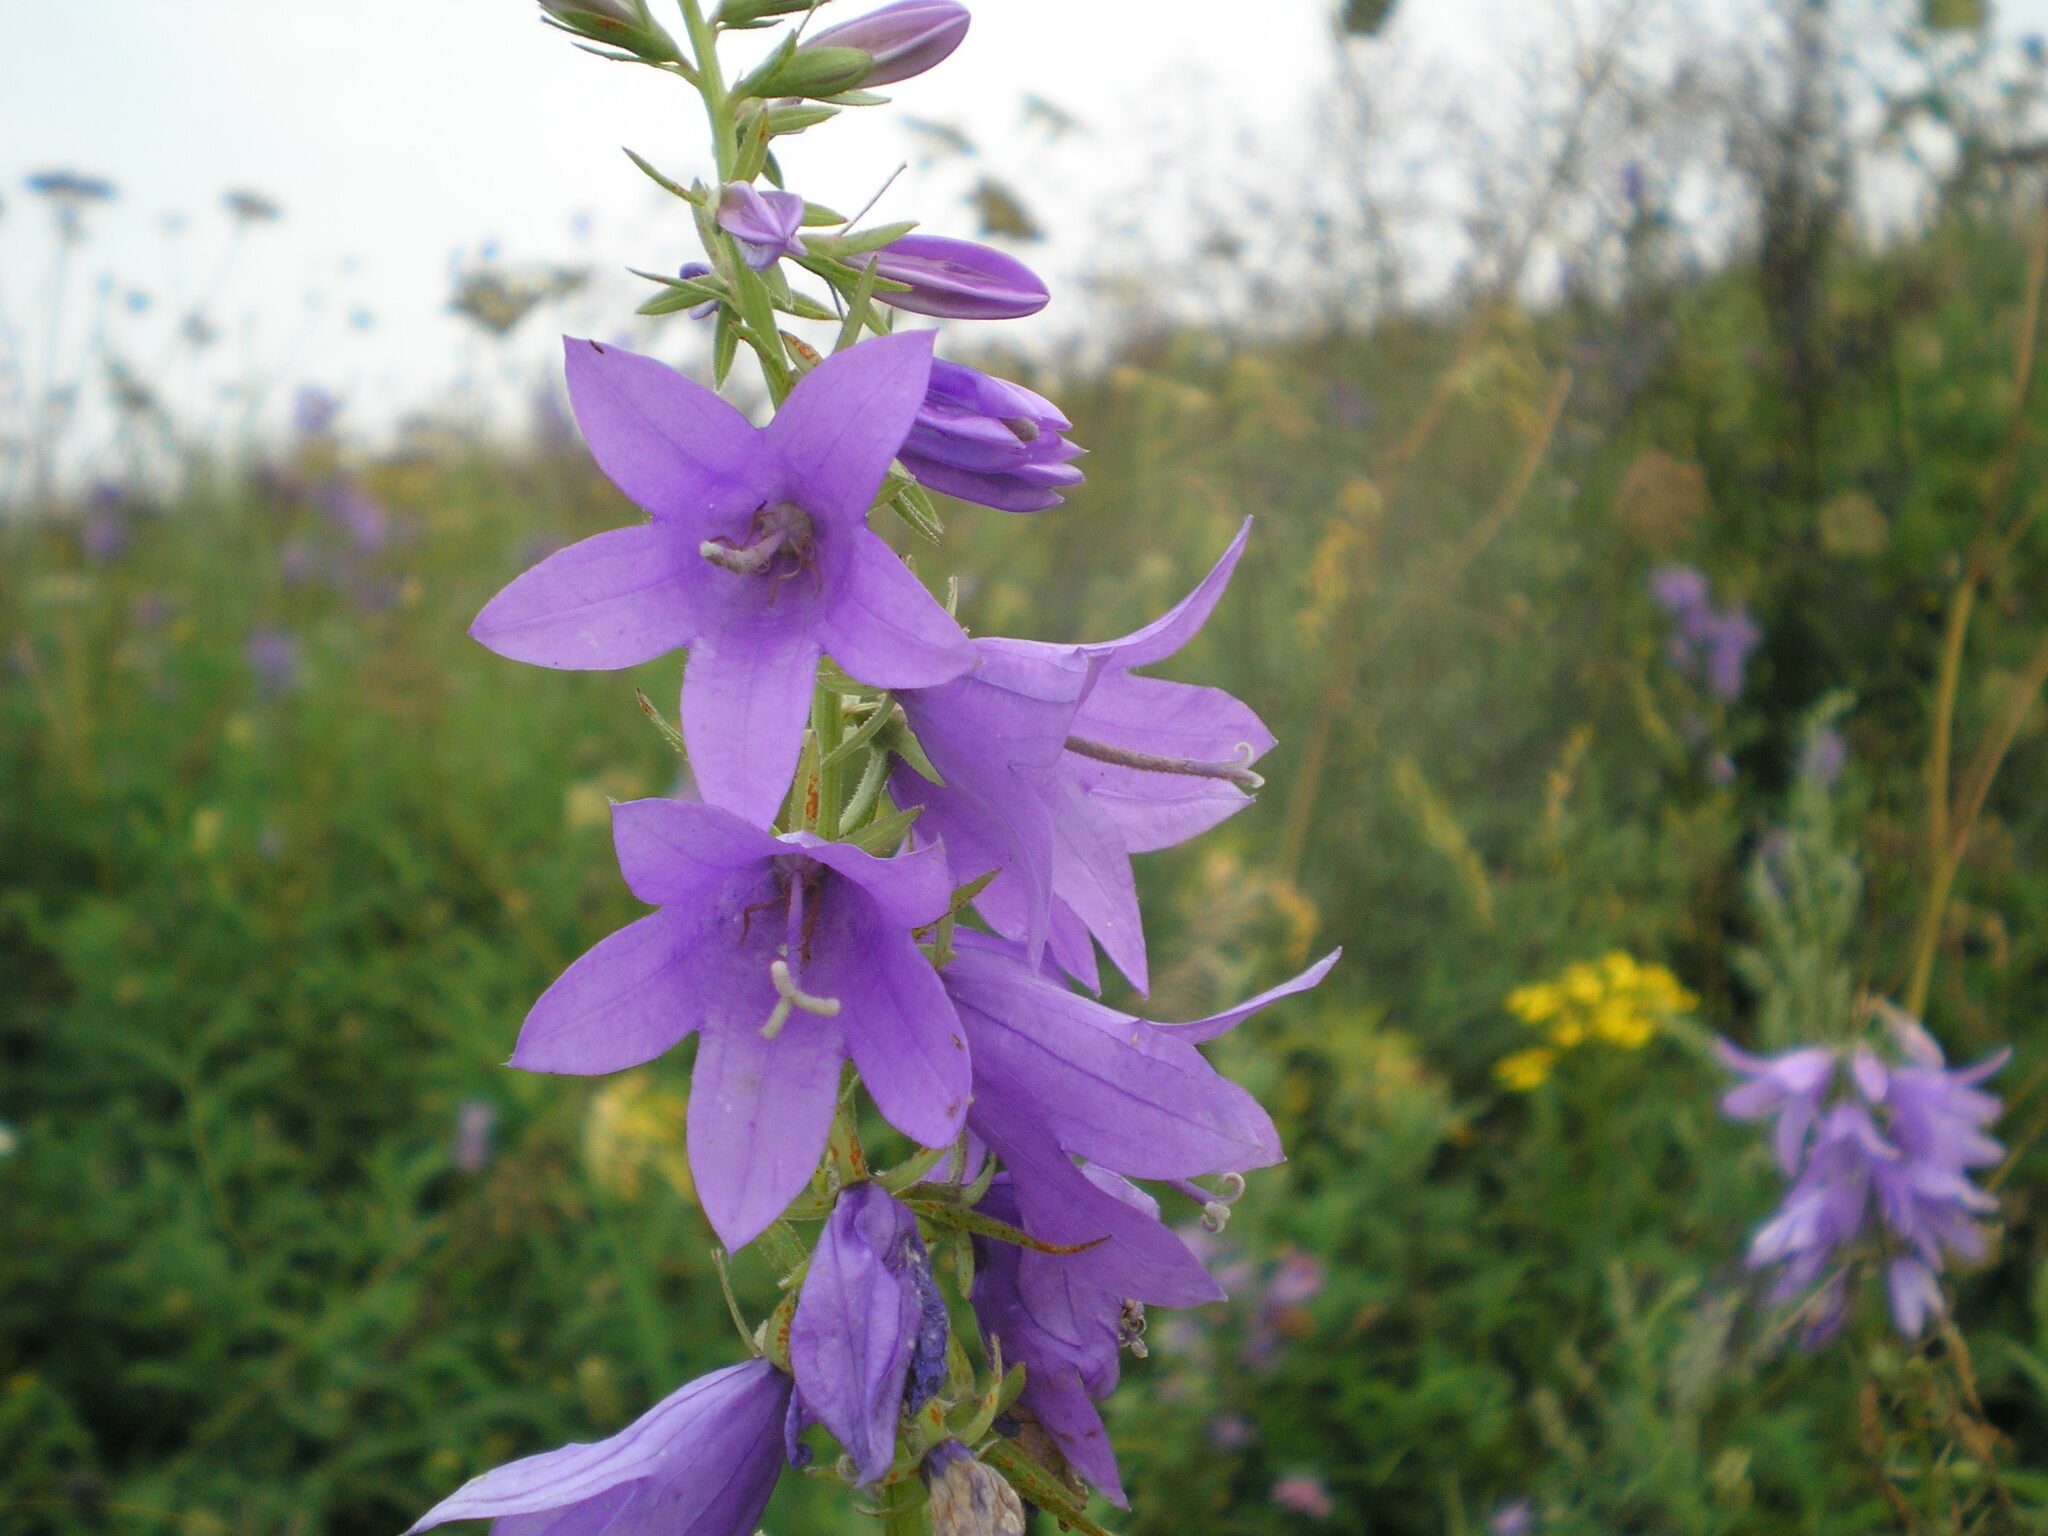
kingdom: Plantae
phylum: Tracheophyta
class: Magnoliopsida
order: Asterales
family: Campanulaceae
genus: Campanula
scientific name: Campanula rapunculoides
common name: Creeping bellflower
